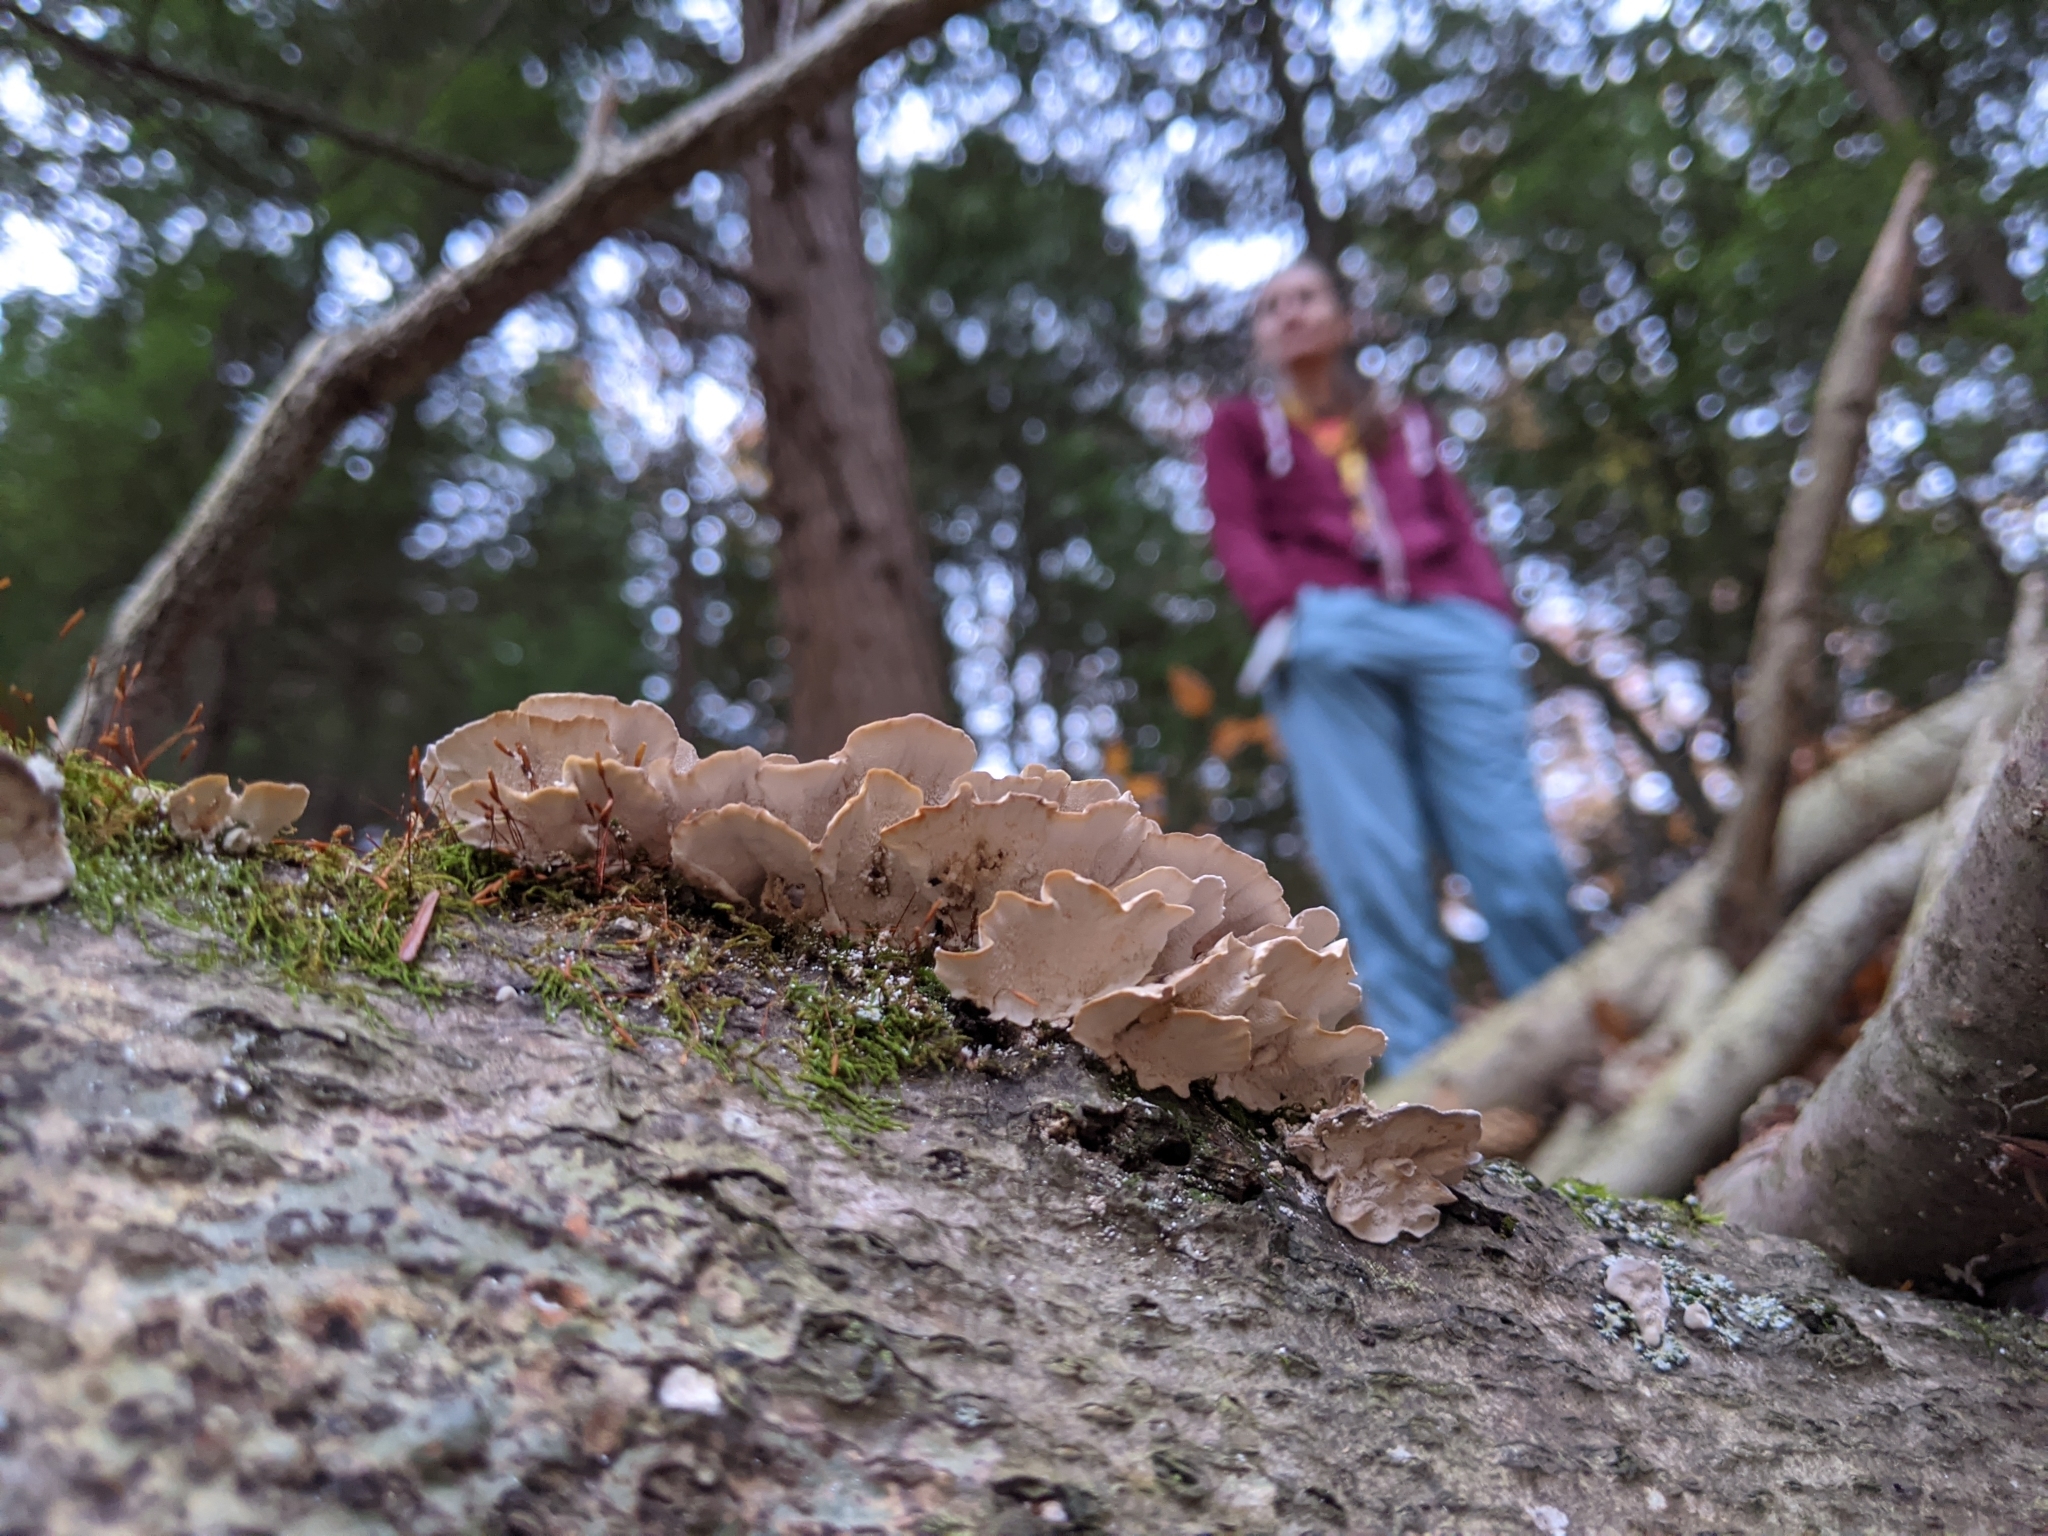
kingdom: Fungi
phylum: Basidiomycota
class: Agaricomycetes
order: Polyporales
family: Polyporaceae
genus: Trametes
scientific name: Trametes versicolor
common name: Turkeytail
